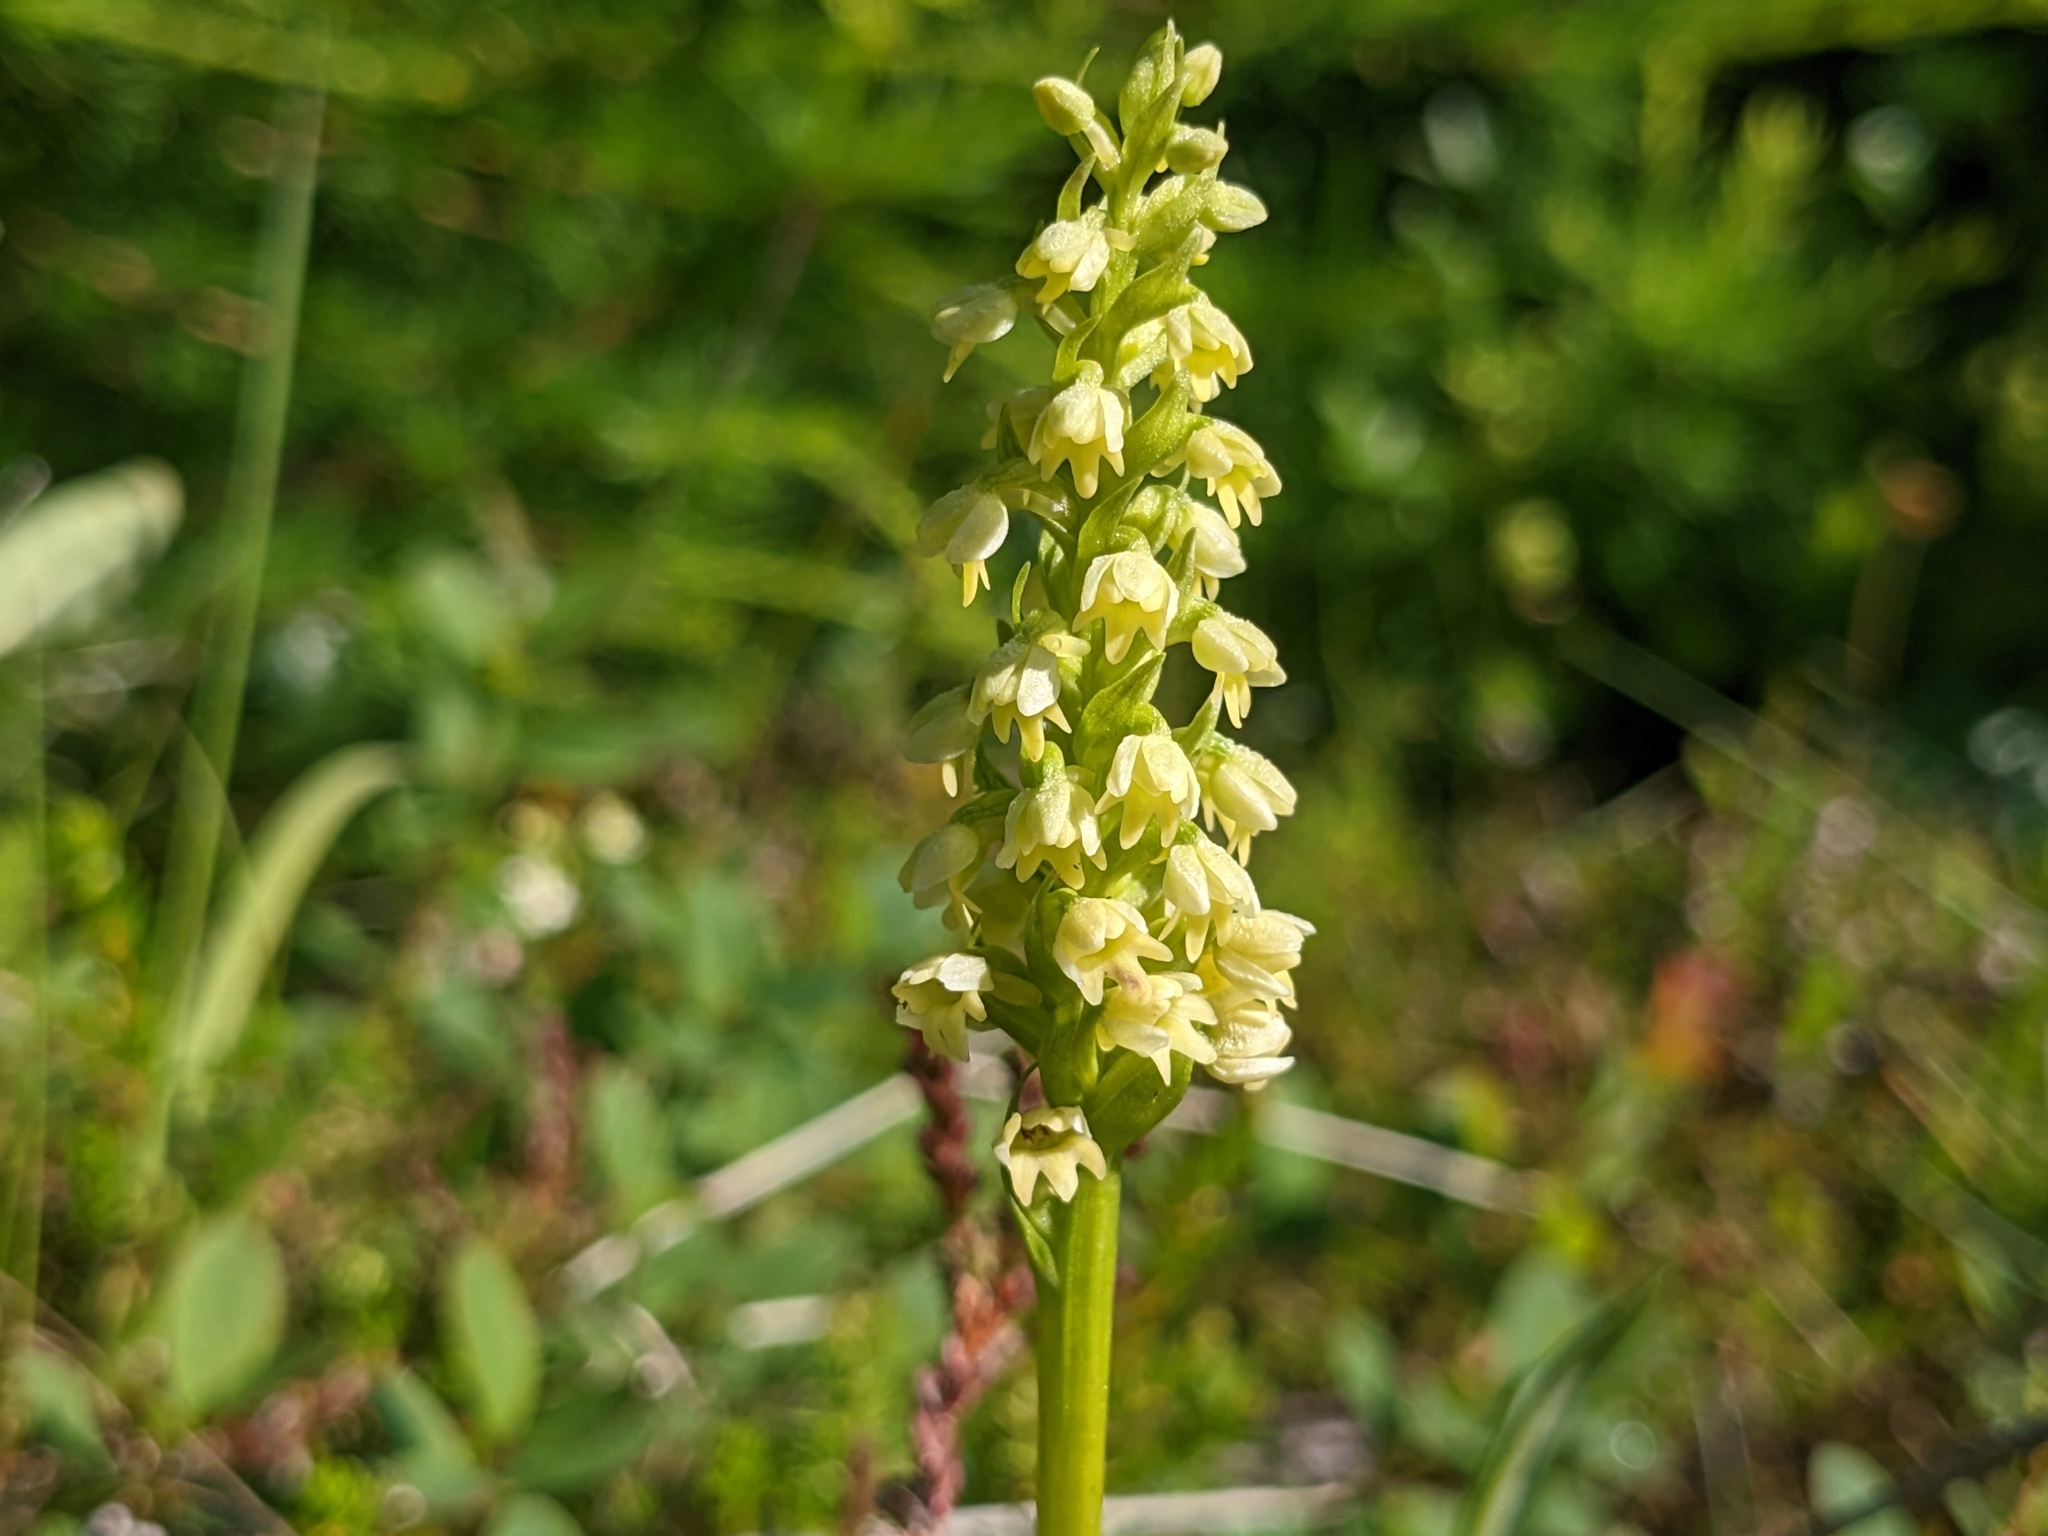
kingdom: Plantae
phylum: Tracheophyta
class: Liliopsida
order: Asparagales
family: Orchidaceae
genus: Pseudorchis
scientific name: Pseudorchis straminea
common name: Vanilla-scented bog orchid
